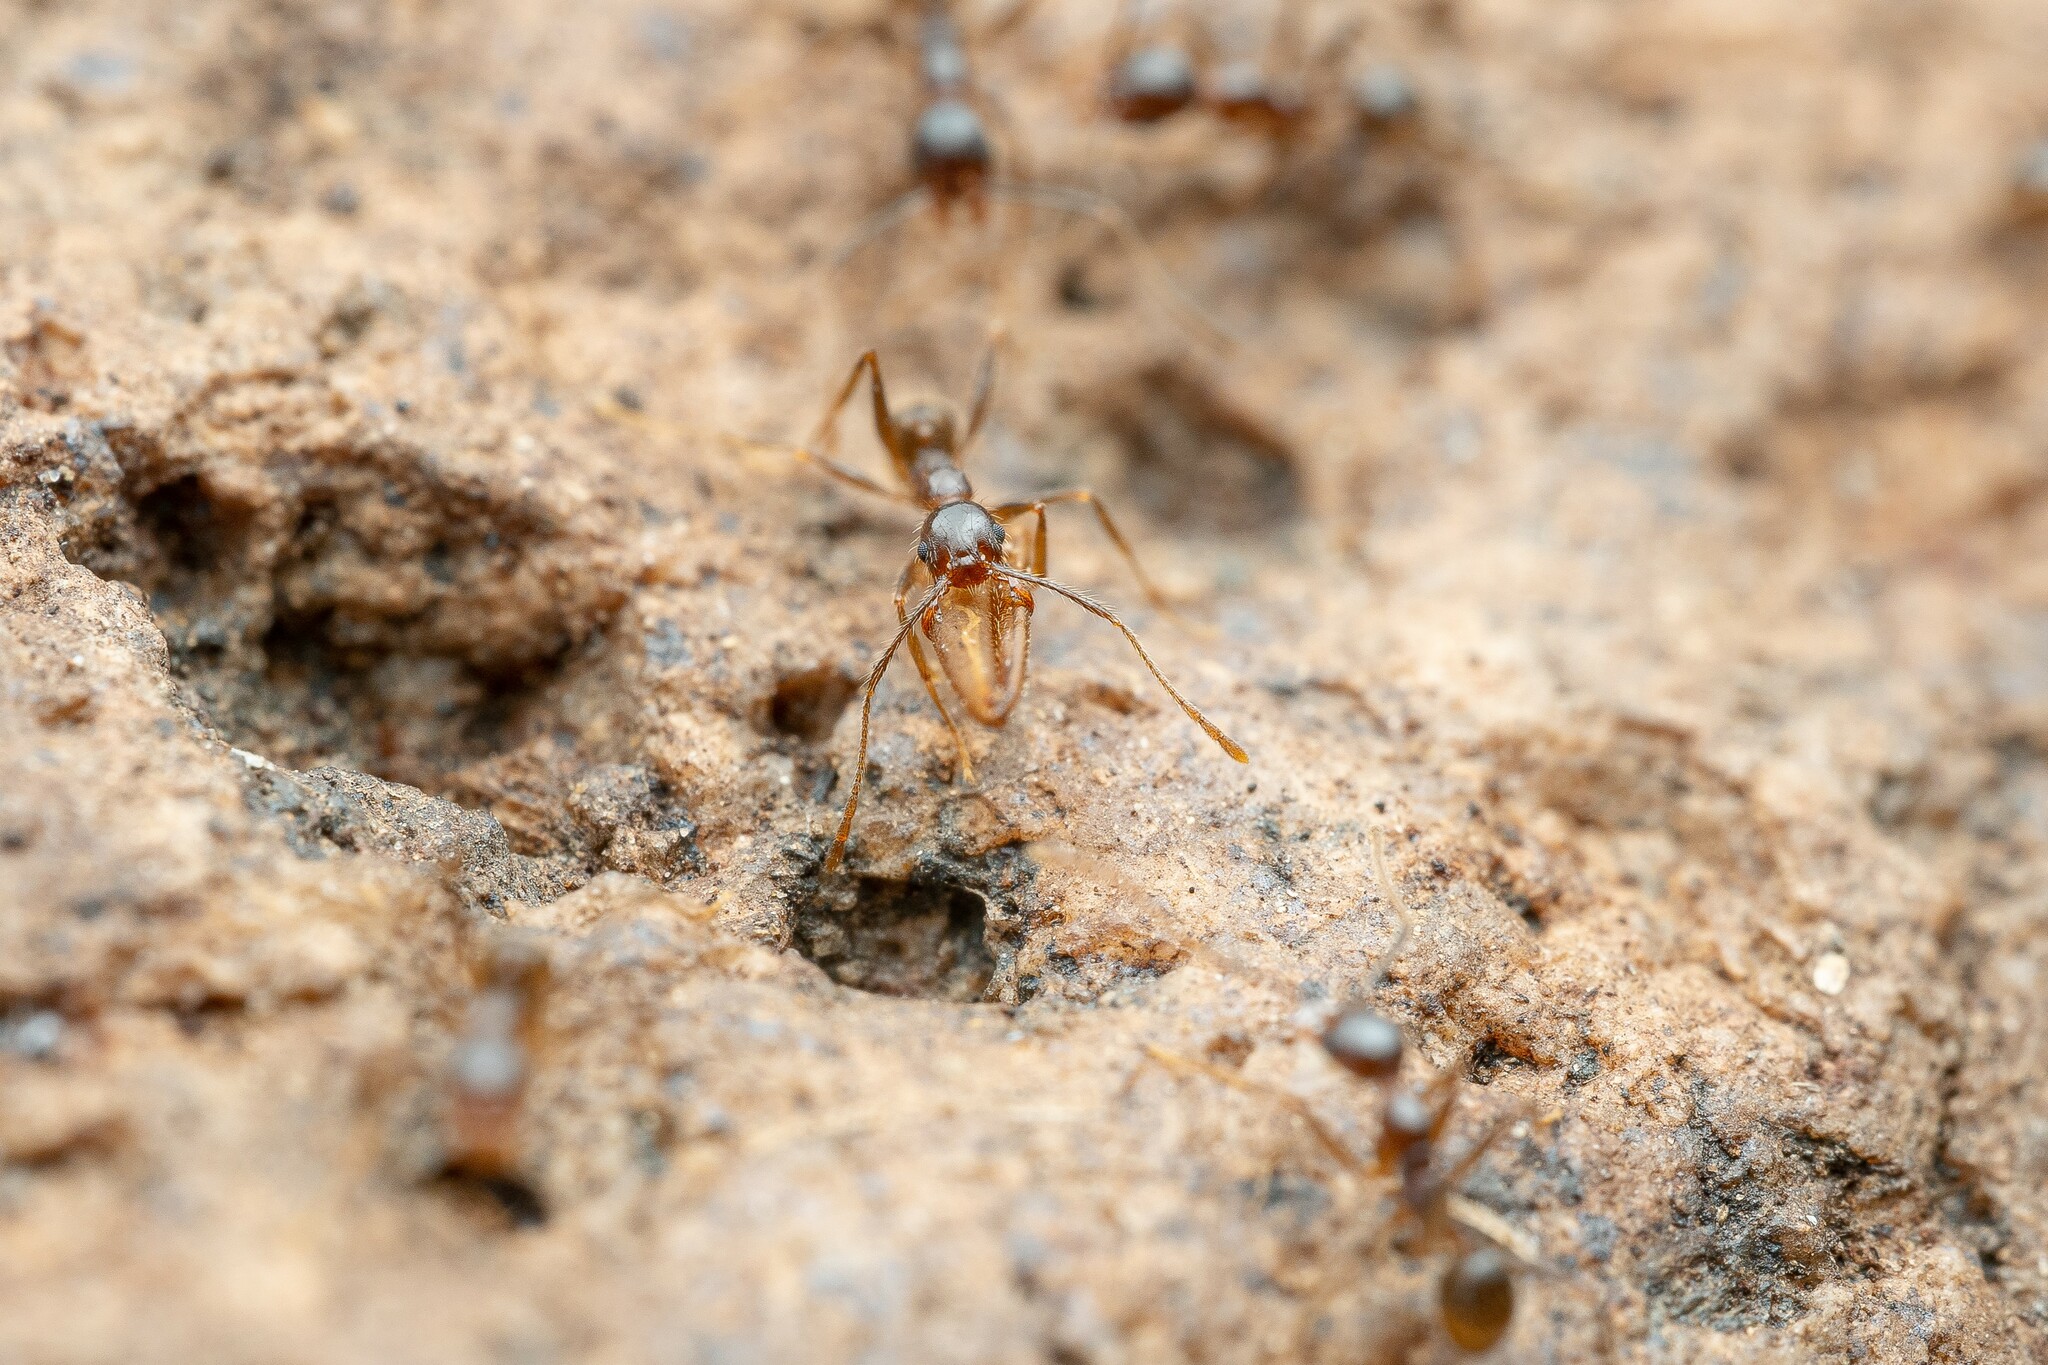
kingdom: Animalia
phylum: Arthropoda
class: Insecta
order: Hymenoptera
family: Formicidae
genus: Pheidole
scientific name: Pheidole
